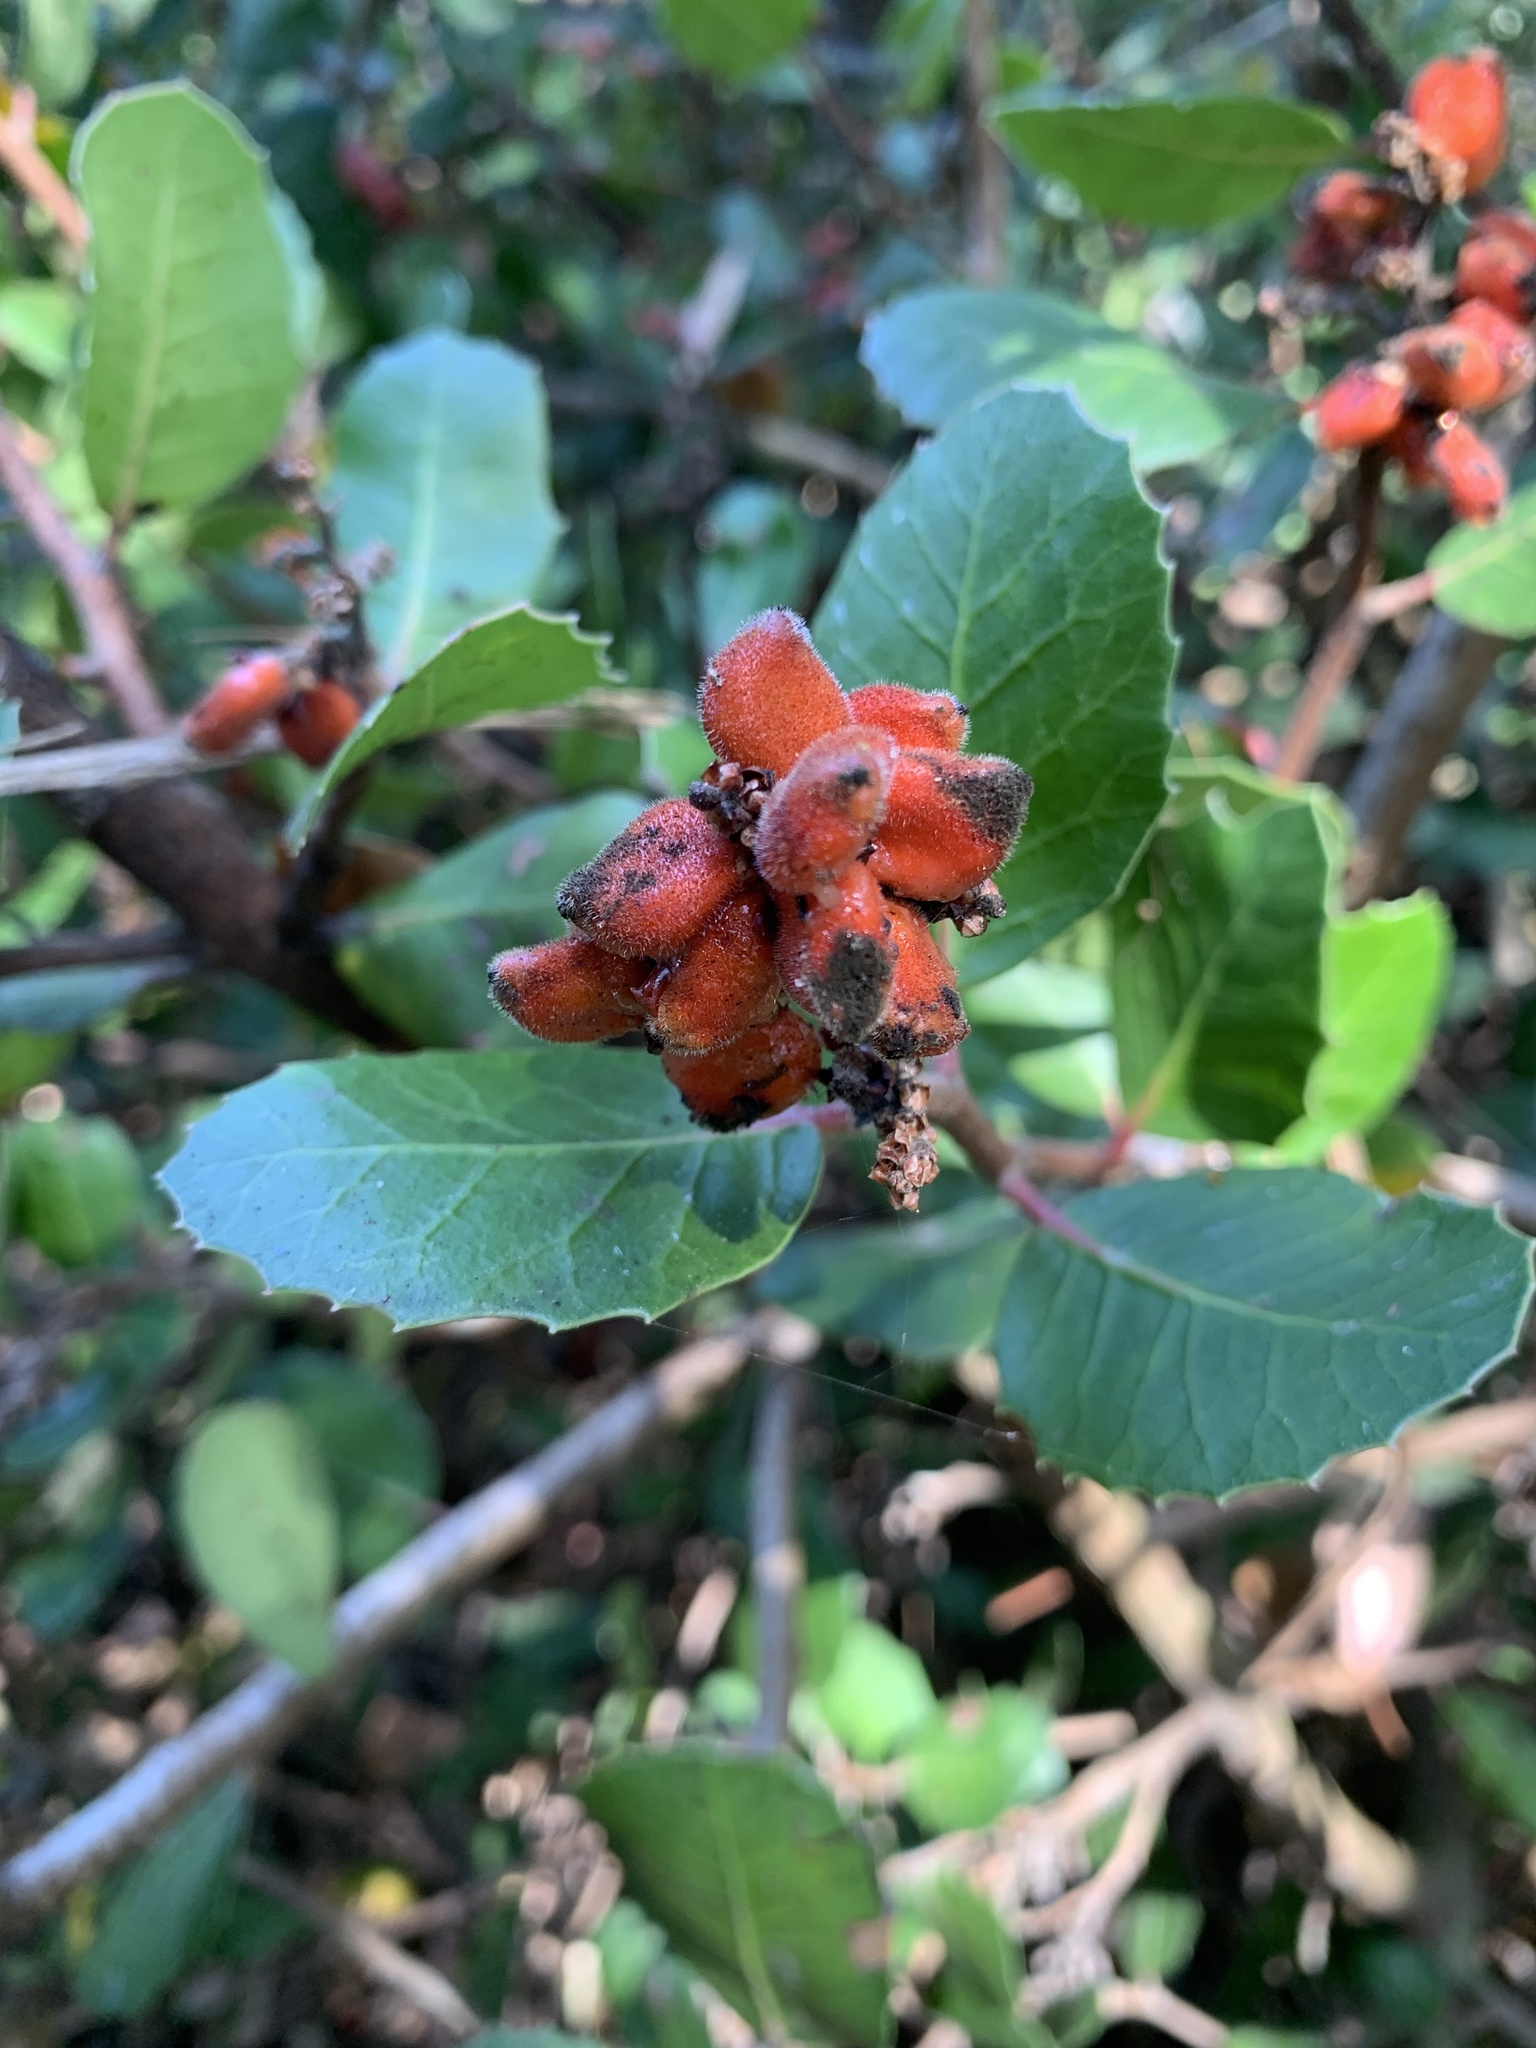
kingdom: Plantae
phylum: Tracheophyta
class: Magnoliopsida
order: Sapindales
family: Anacardiaceae
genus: Rhus
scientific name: Rhus integrifolia
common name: Lemonade sumac
